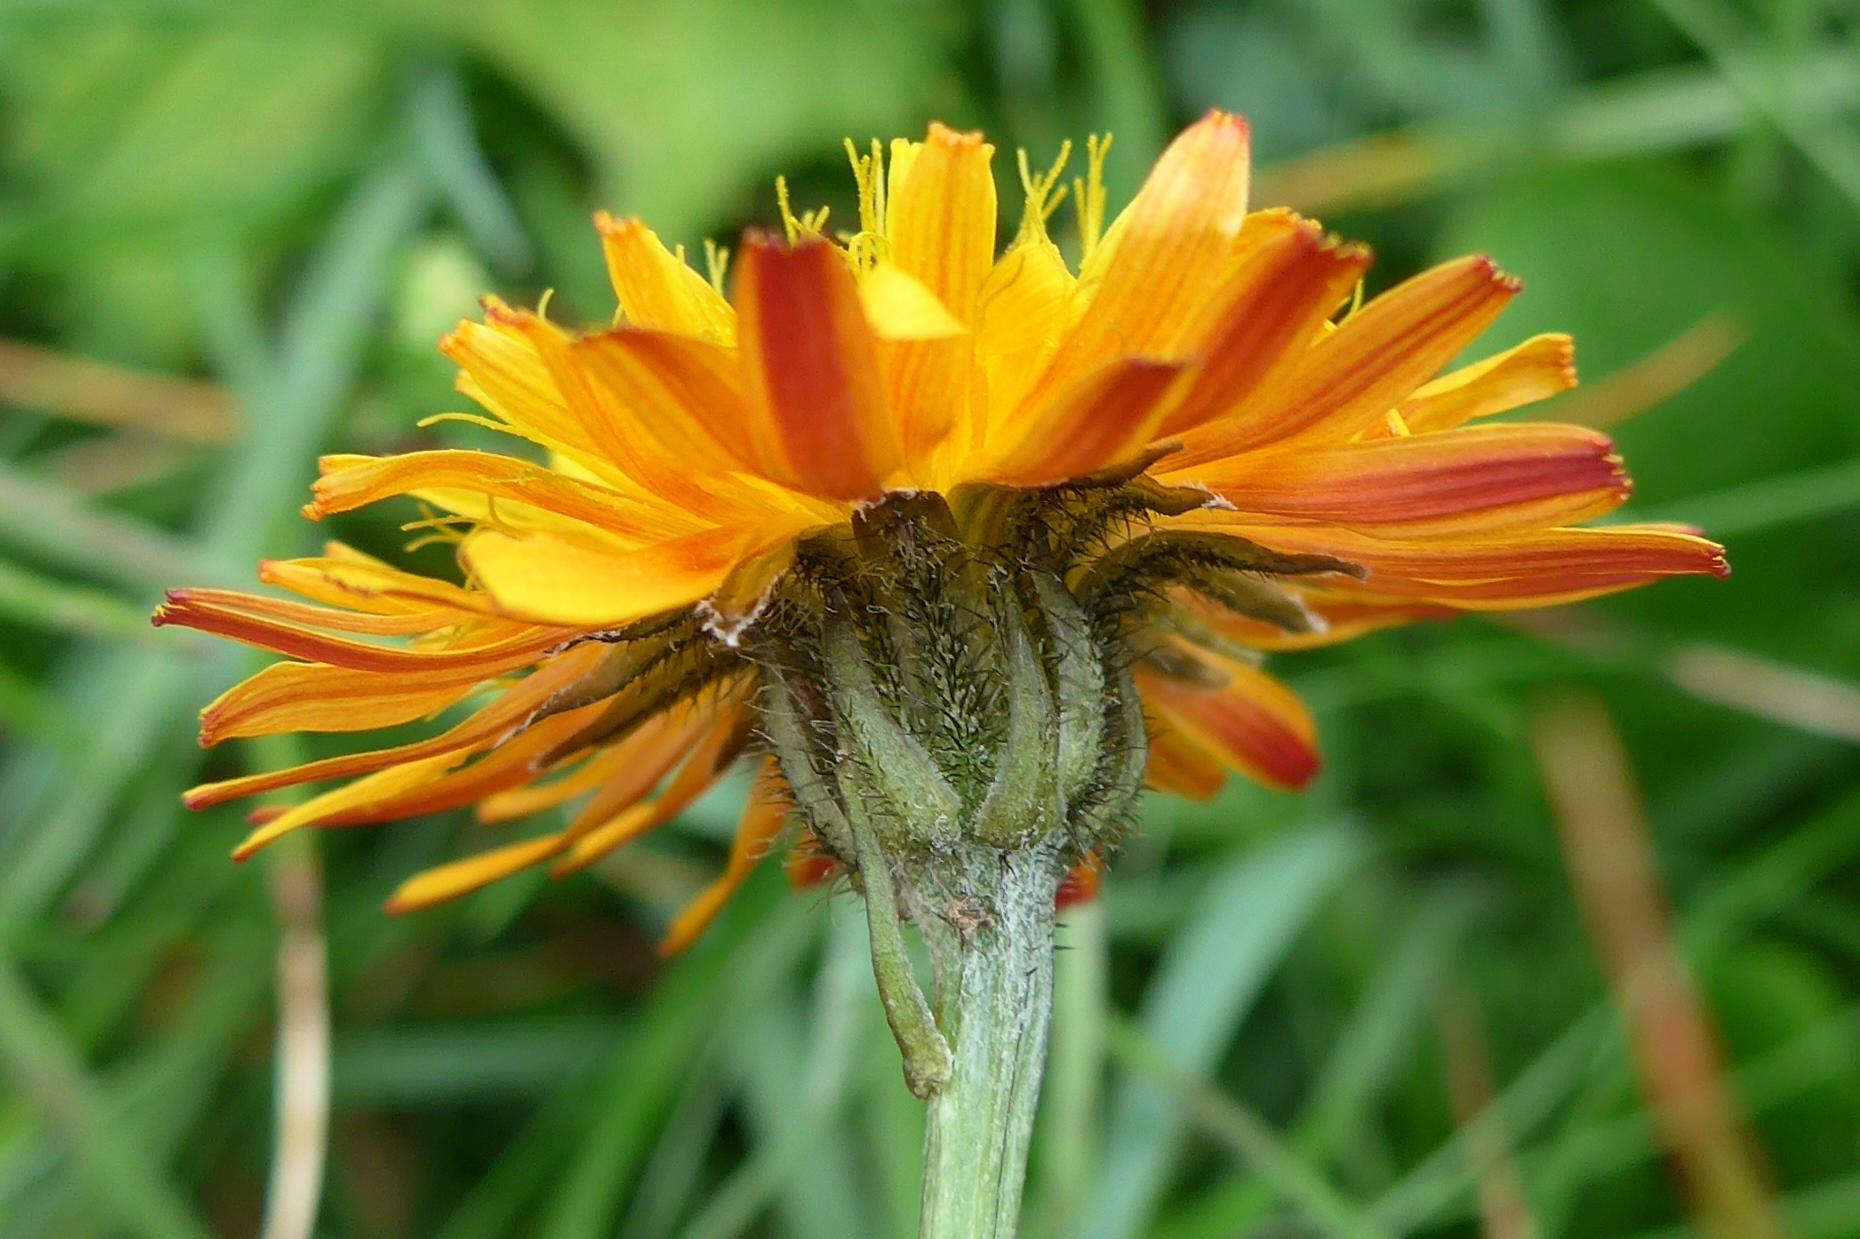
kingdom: Plantae
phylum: Tracheophyta
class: Magnoliopsida
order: Asterales
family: Asteraceae
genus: Crepis
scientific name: Crepis aurea
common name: Golden hawk's-beard
